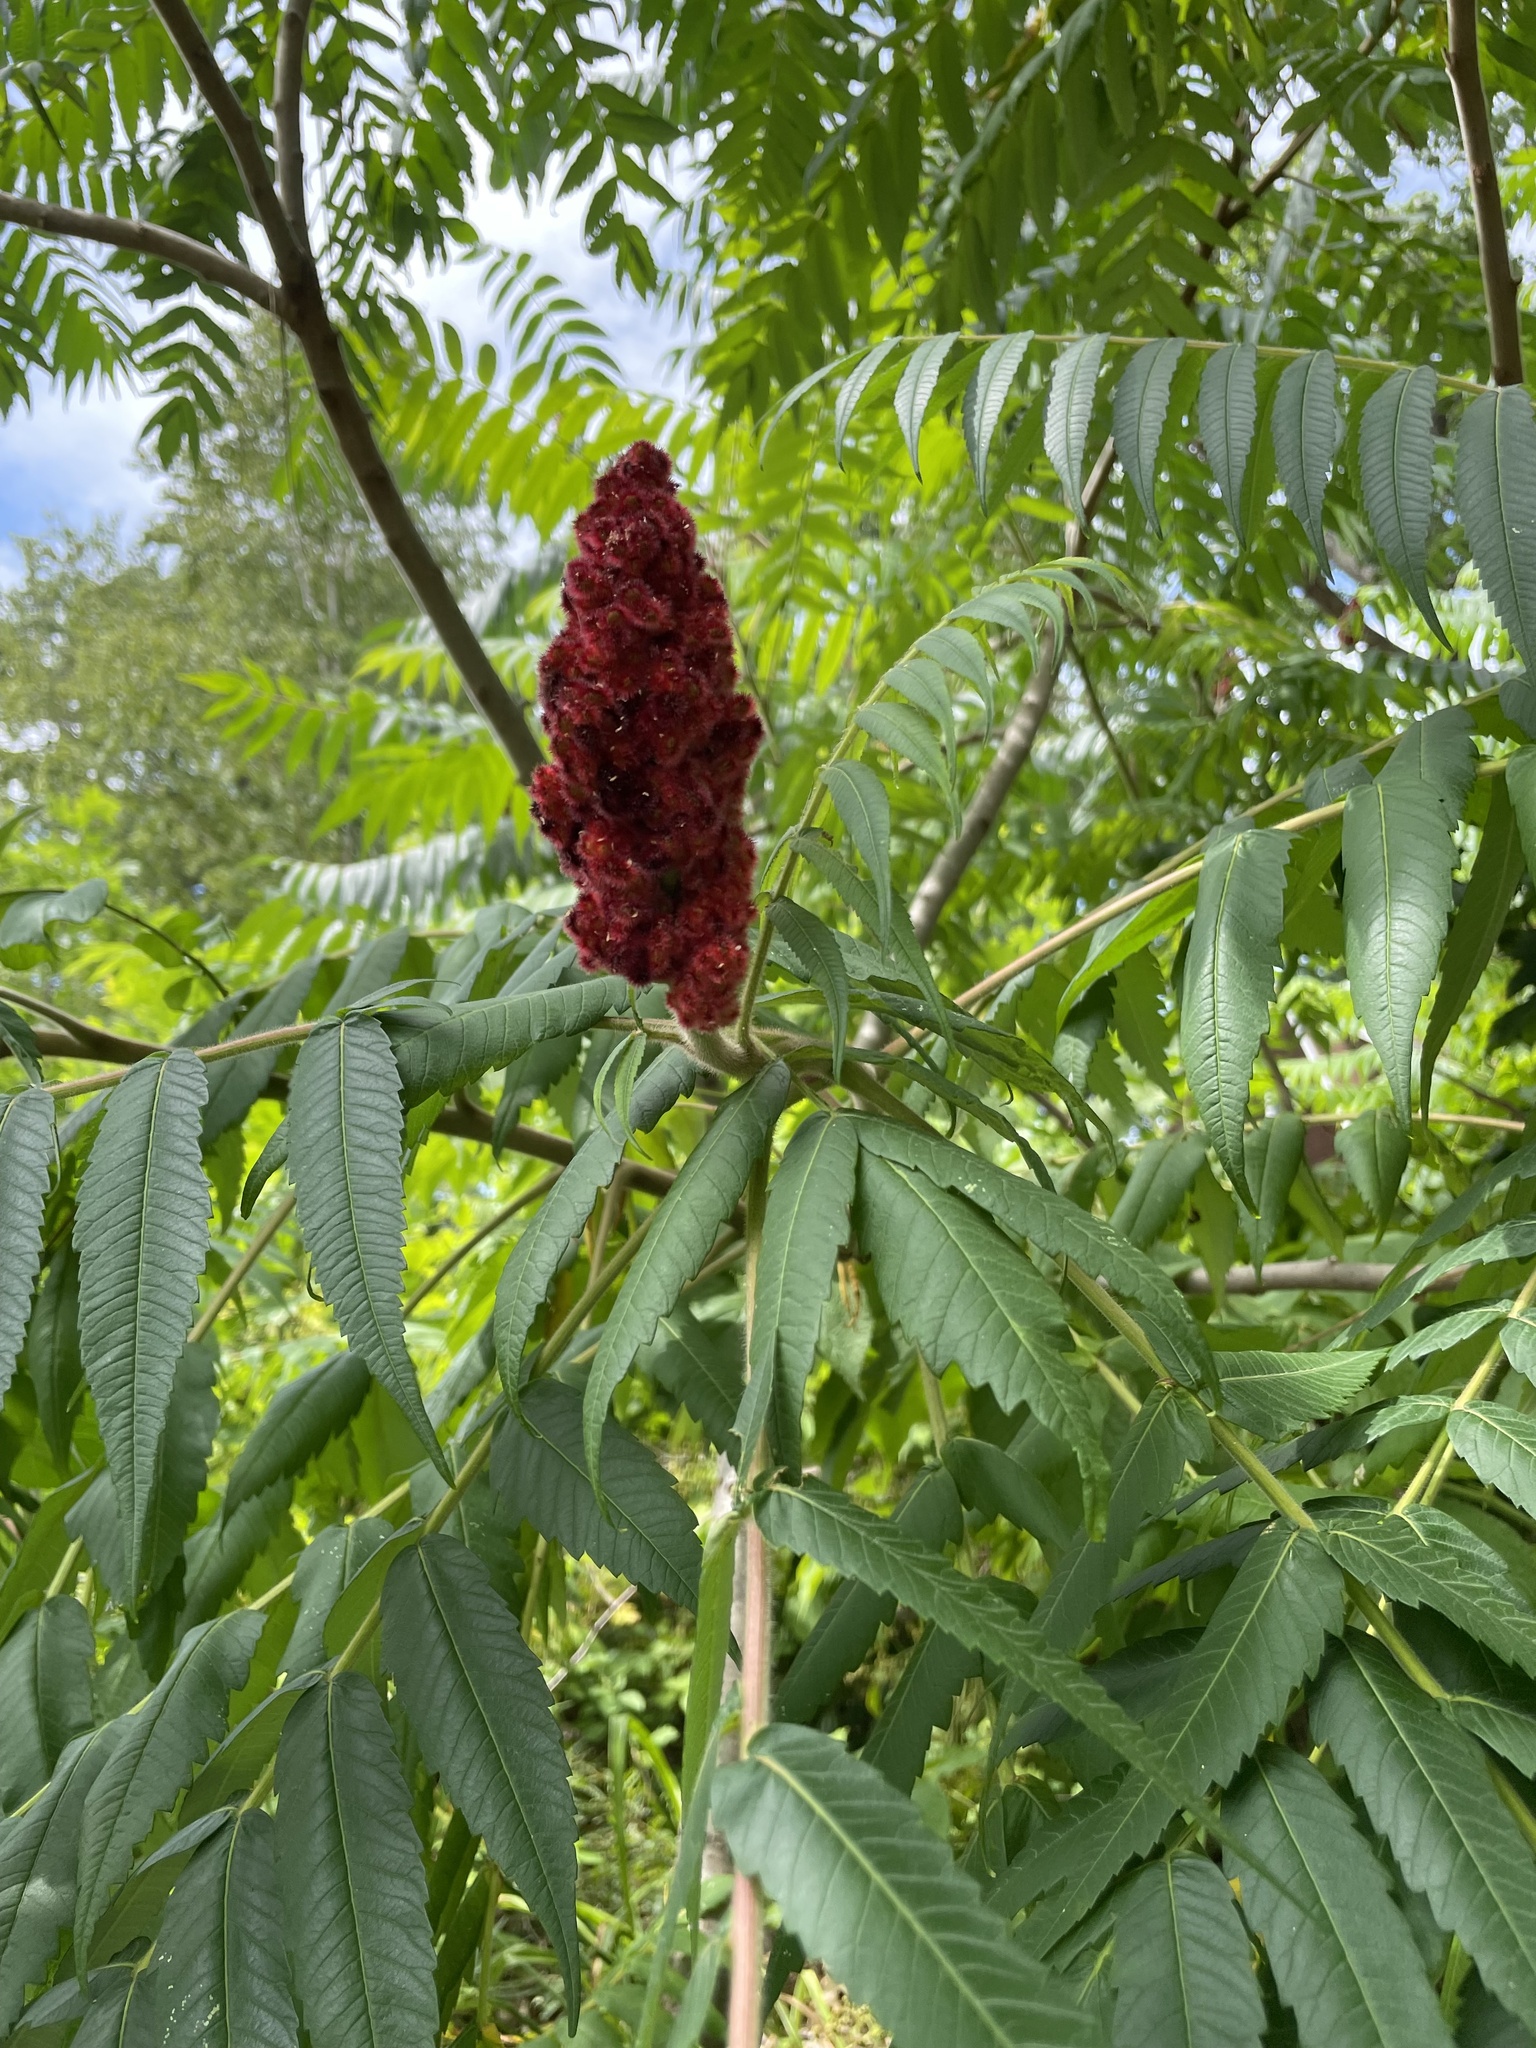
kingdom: Plantae
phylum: Tracheophyta
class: Magnoliopsida
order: Sapindales
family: Anacardiaceae
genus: Rhus
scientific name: Rhus typhina
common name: Staghorn sumac
